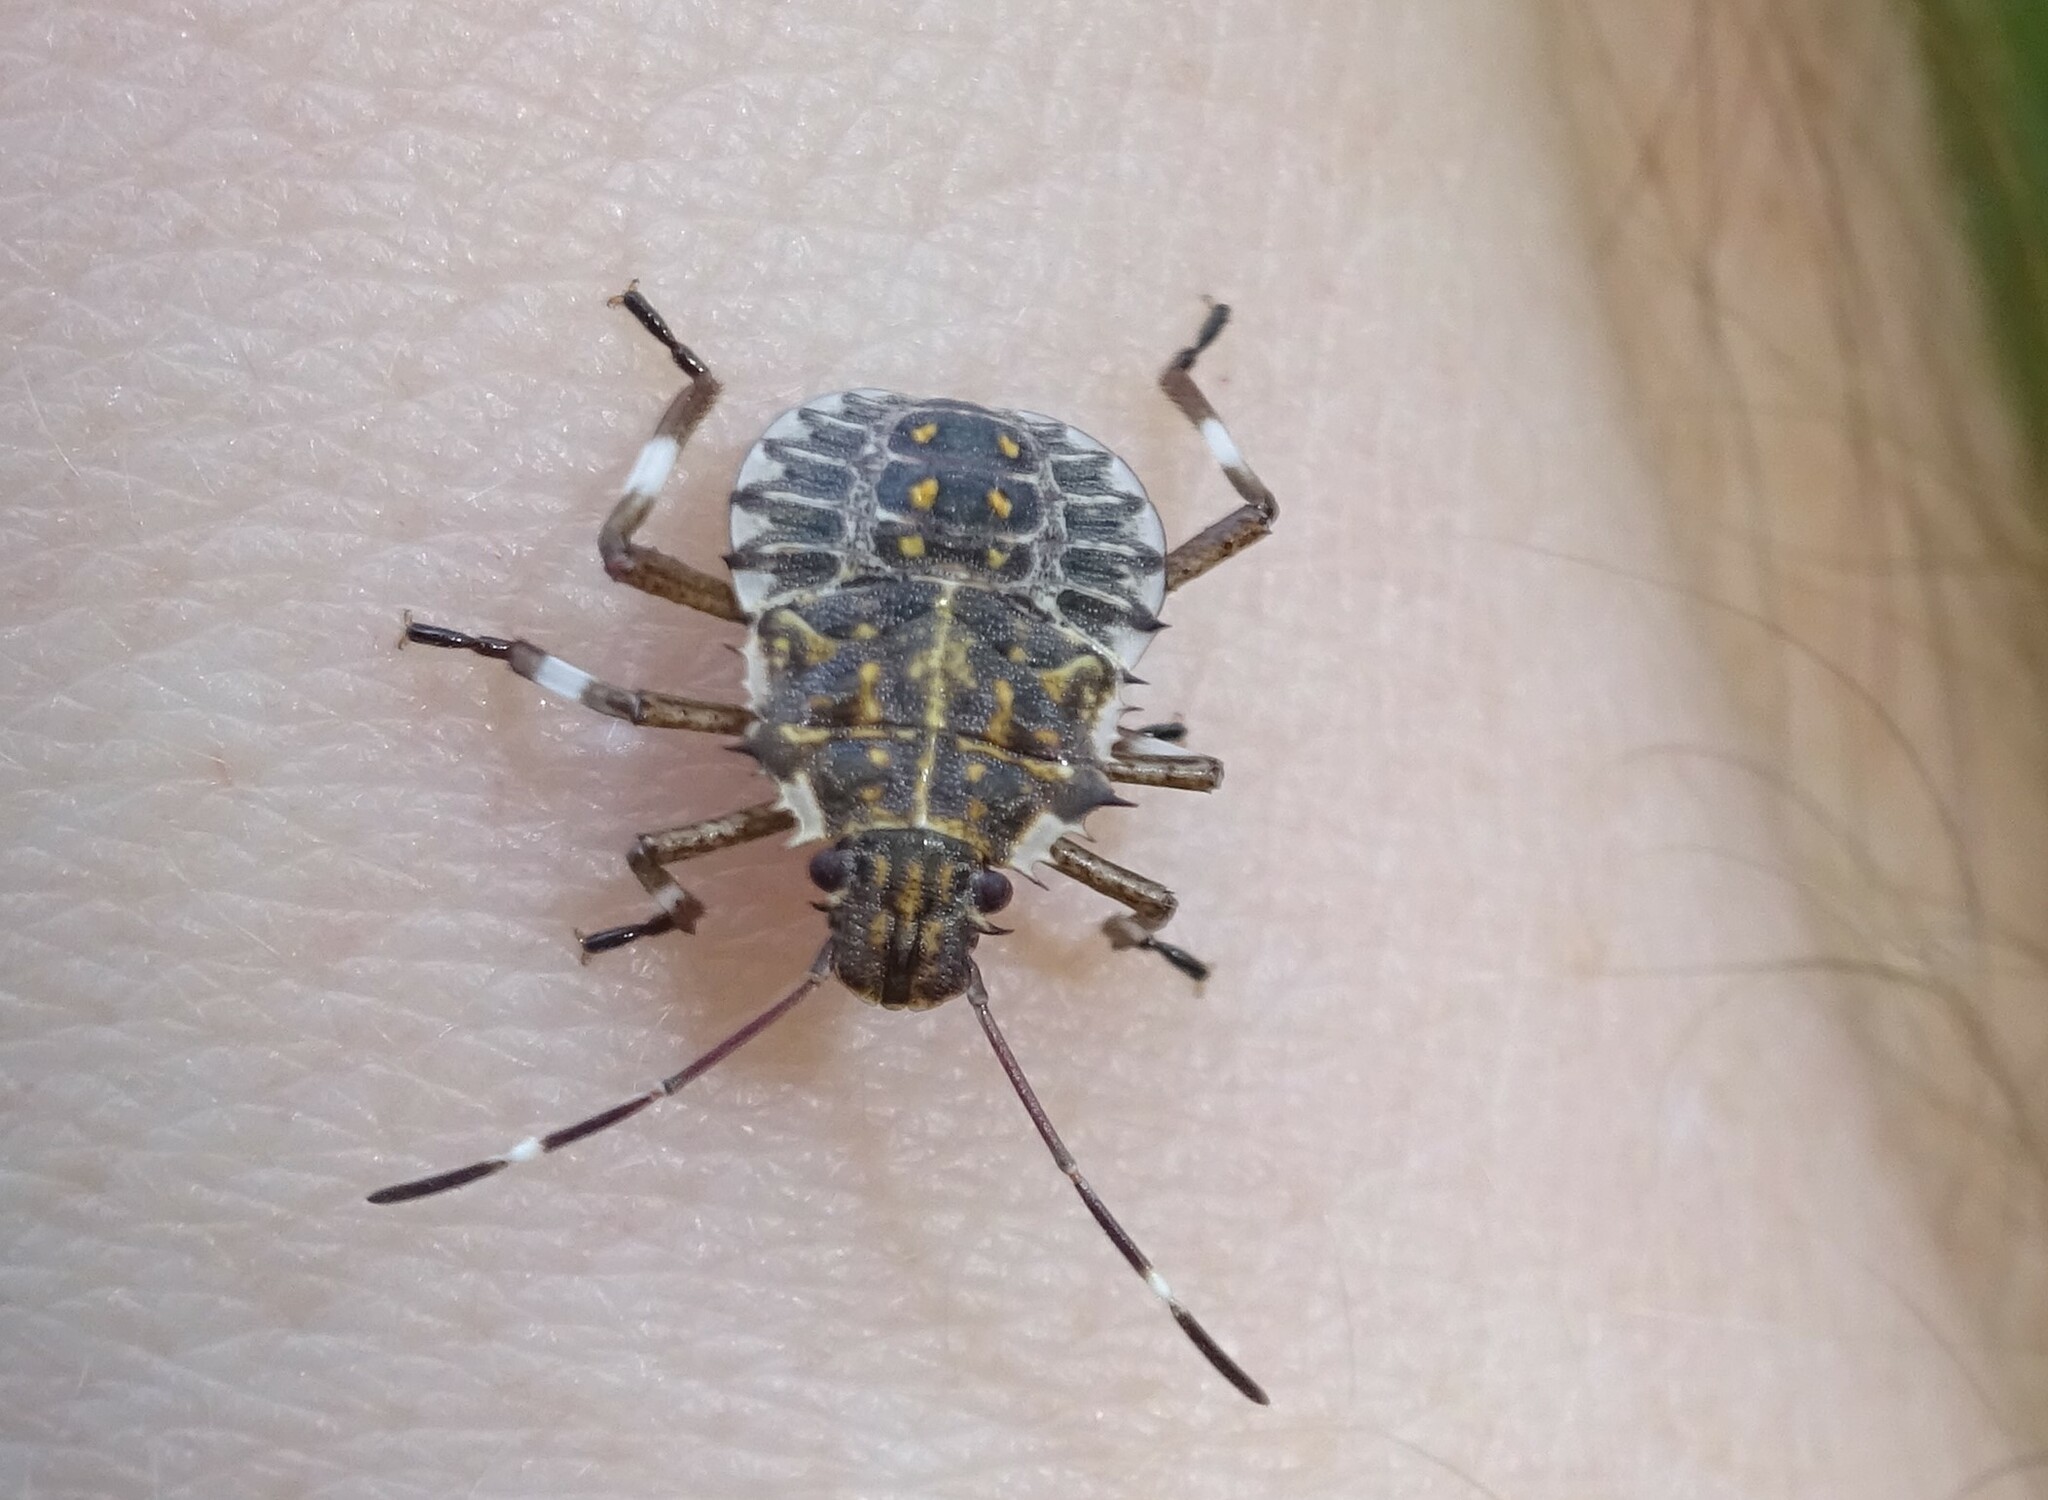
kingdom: Animalia
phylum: Arthropoda
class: Insecta
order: Hemiptera
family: Pentatomidae
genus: Halyomorpha
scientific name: Halyomorpha halys
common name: Brown marmorated stink bug
